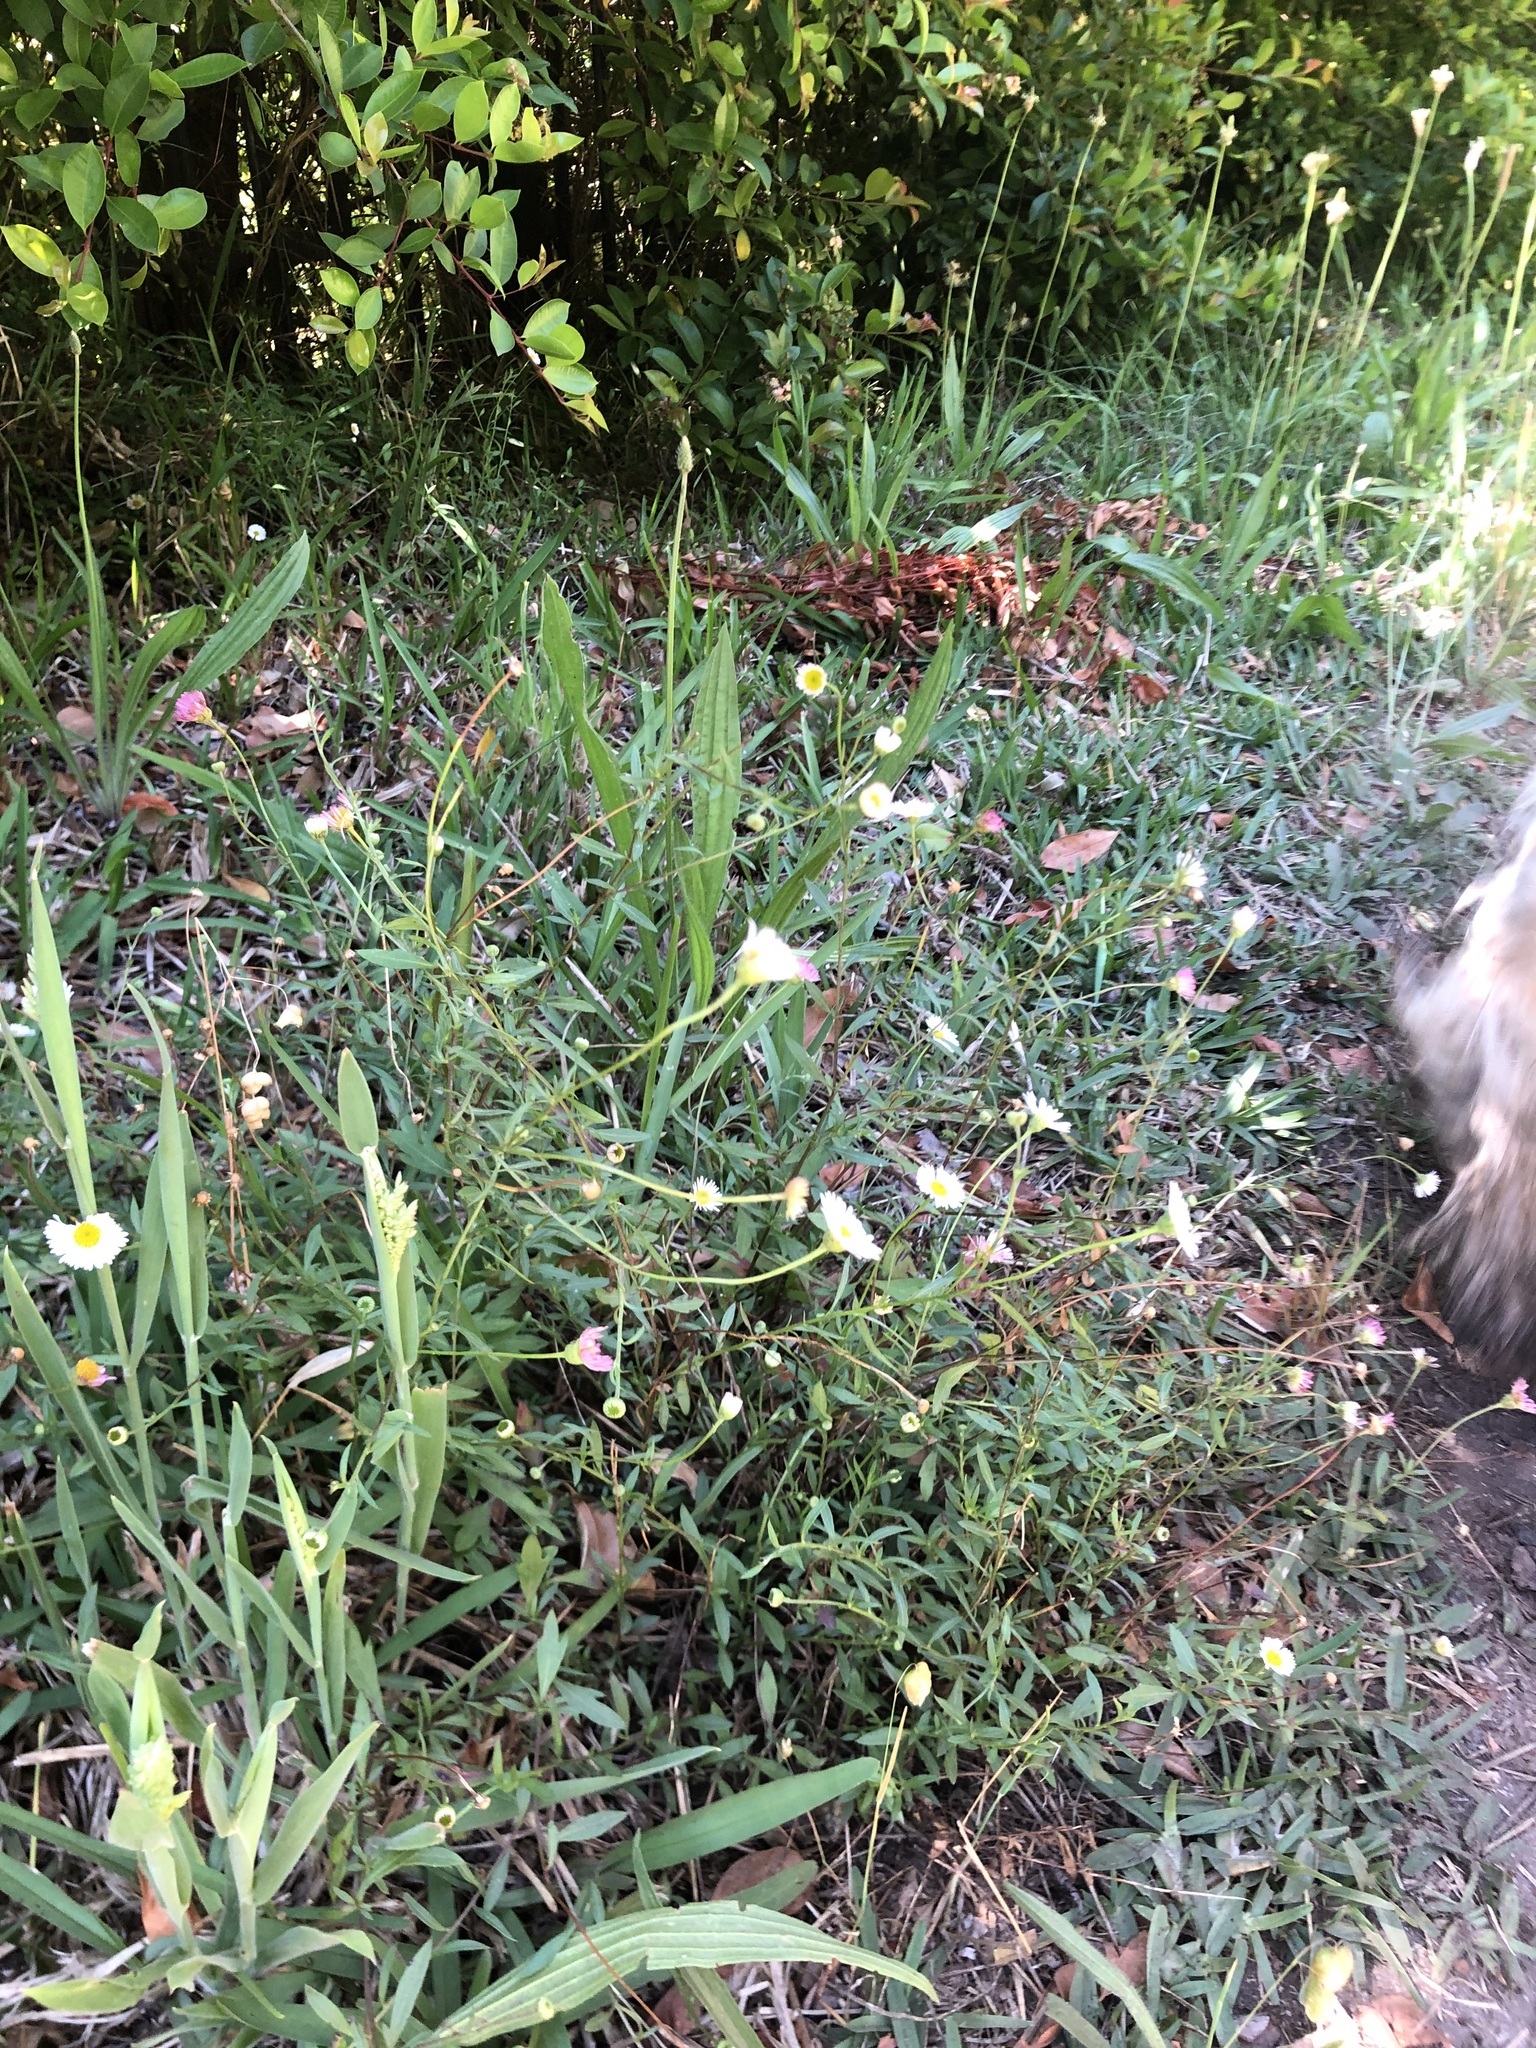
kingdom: Plantae
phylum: Tracheophyta
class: Magnoliopsida
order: Asterales
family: Asteraceae
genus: Erigeron
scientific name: Erigeron karvinskianus
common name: Mexican fleabane
